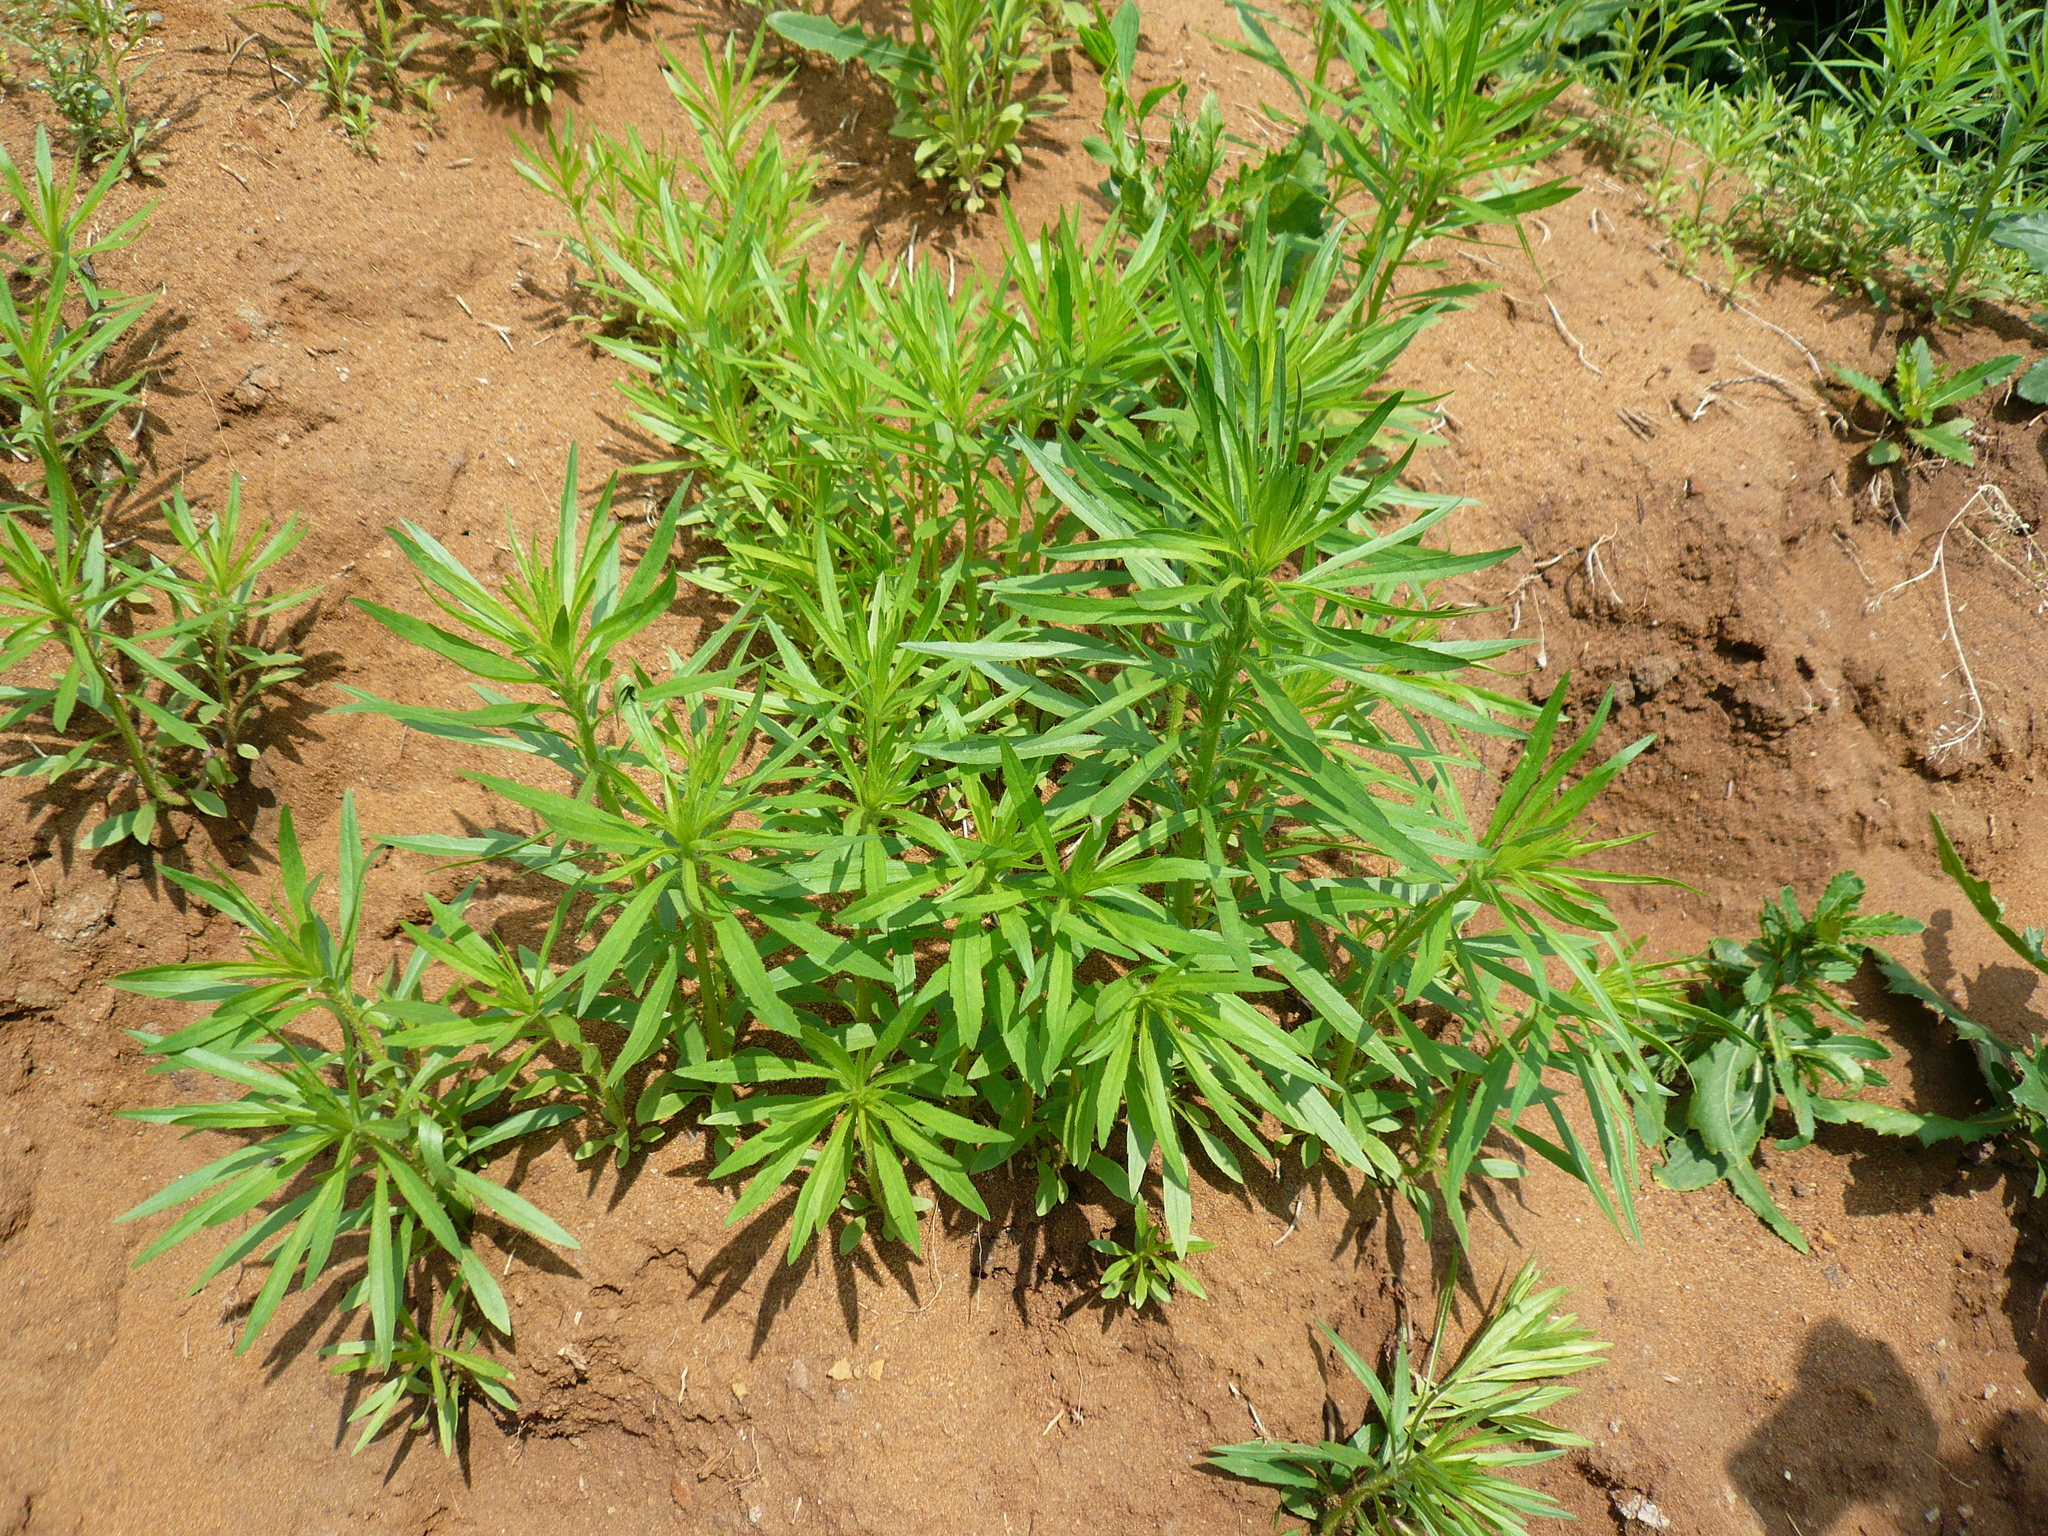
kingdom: Plantae
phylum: Tracheophyta
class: Magnoliopsida
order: Asterales
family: Asteraceae
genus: Erigeron
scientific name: Erigeron canadensis
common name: Canadian fleabane
